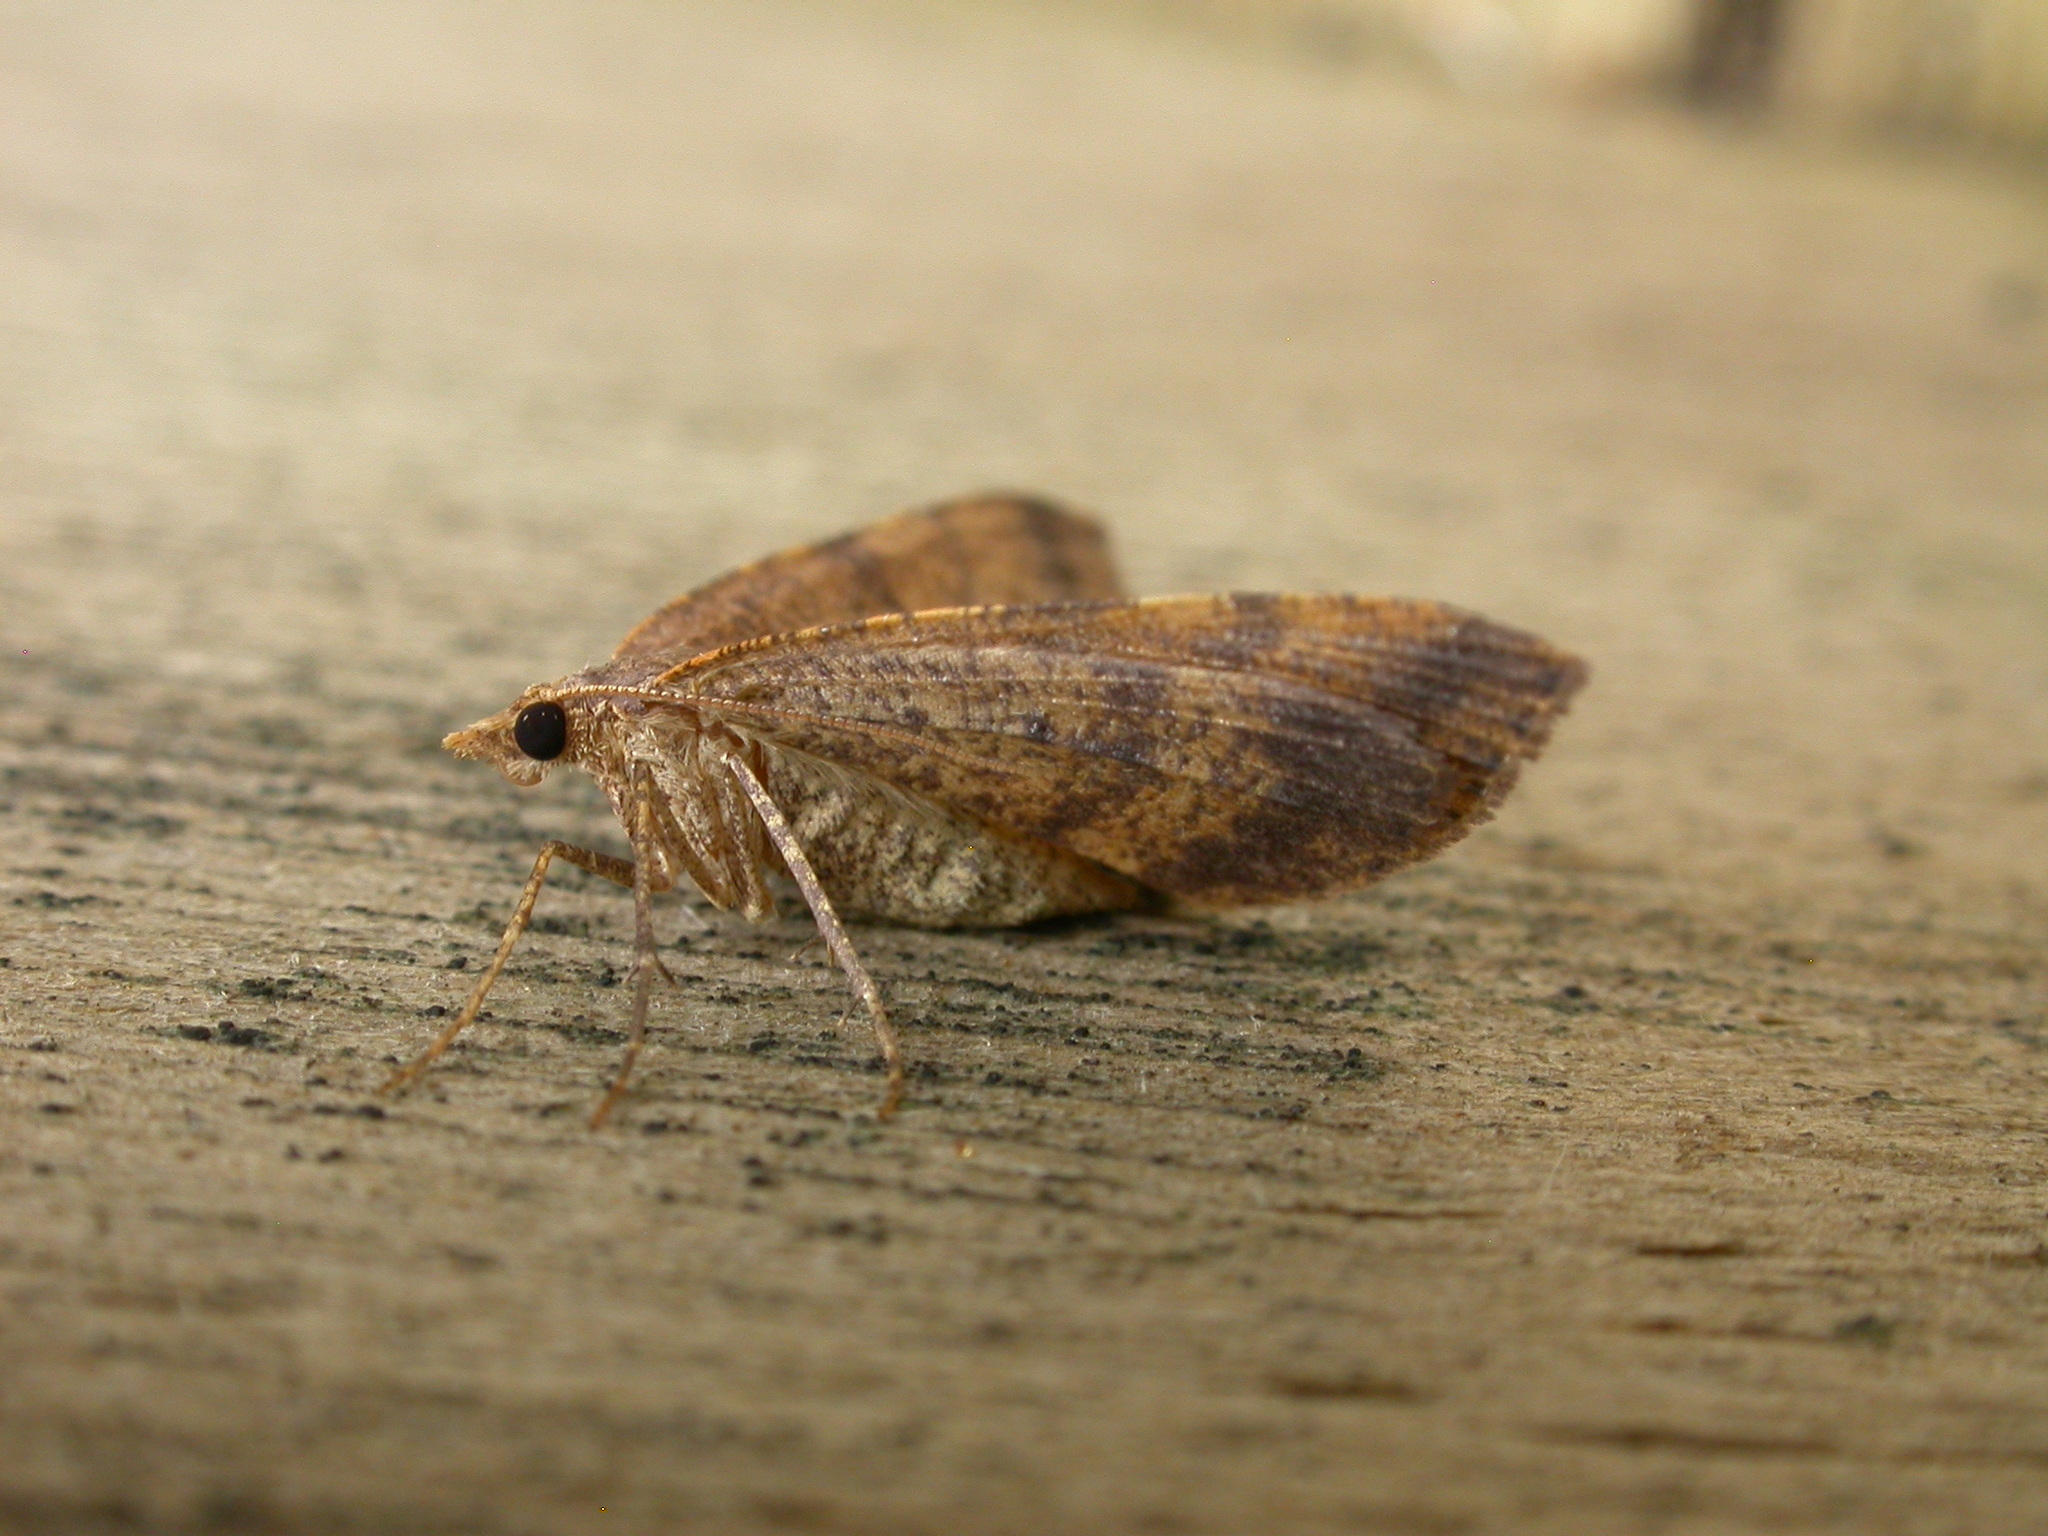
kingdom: Animalia
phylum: Arthropoda
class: Insecta
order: Lepidoptera
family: Geometridae
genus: Parosteodes
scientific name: Parosteodes fictiliaria
